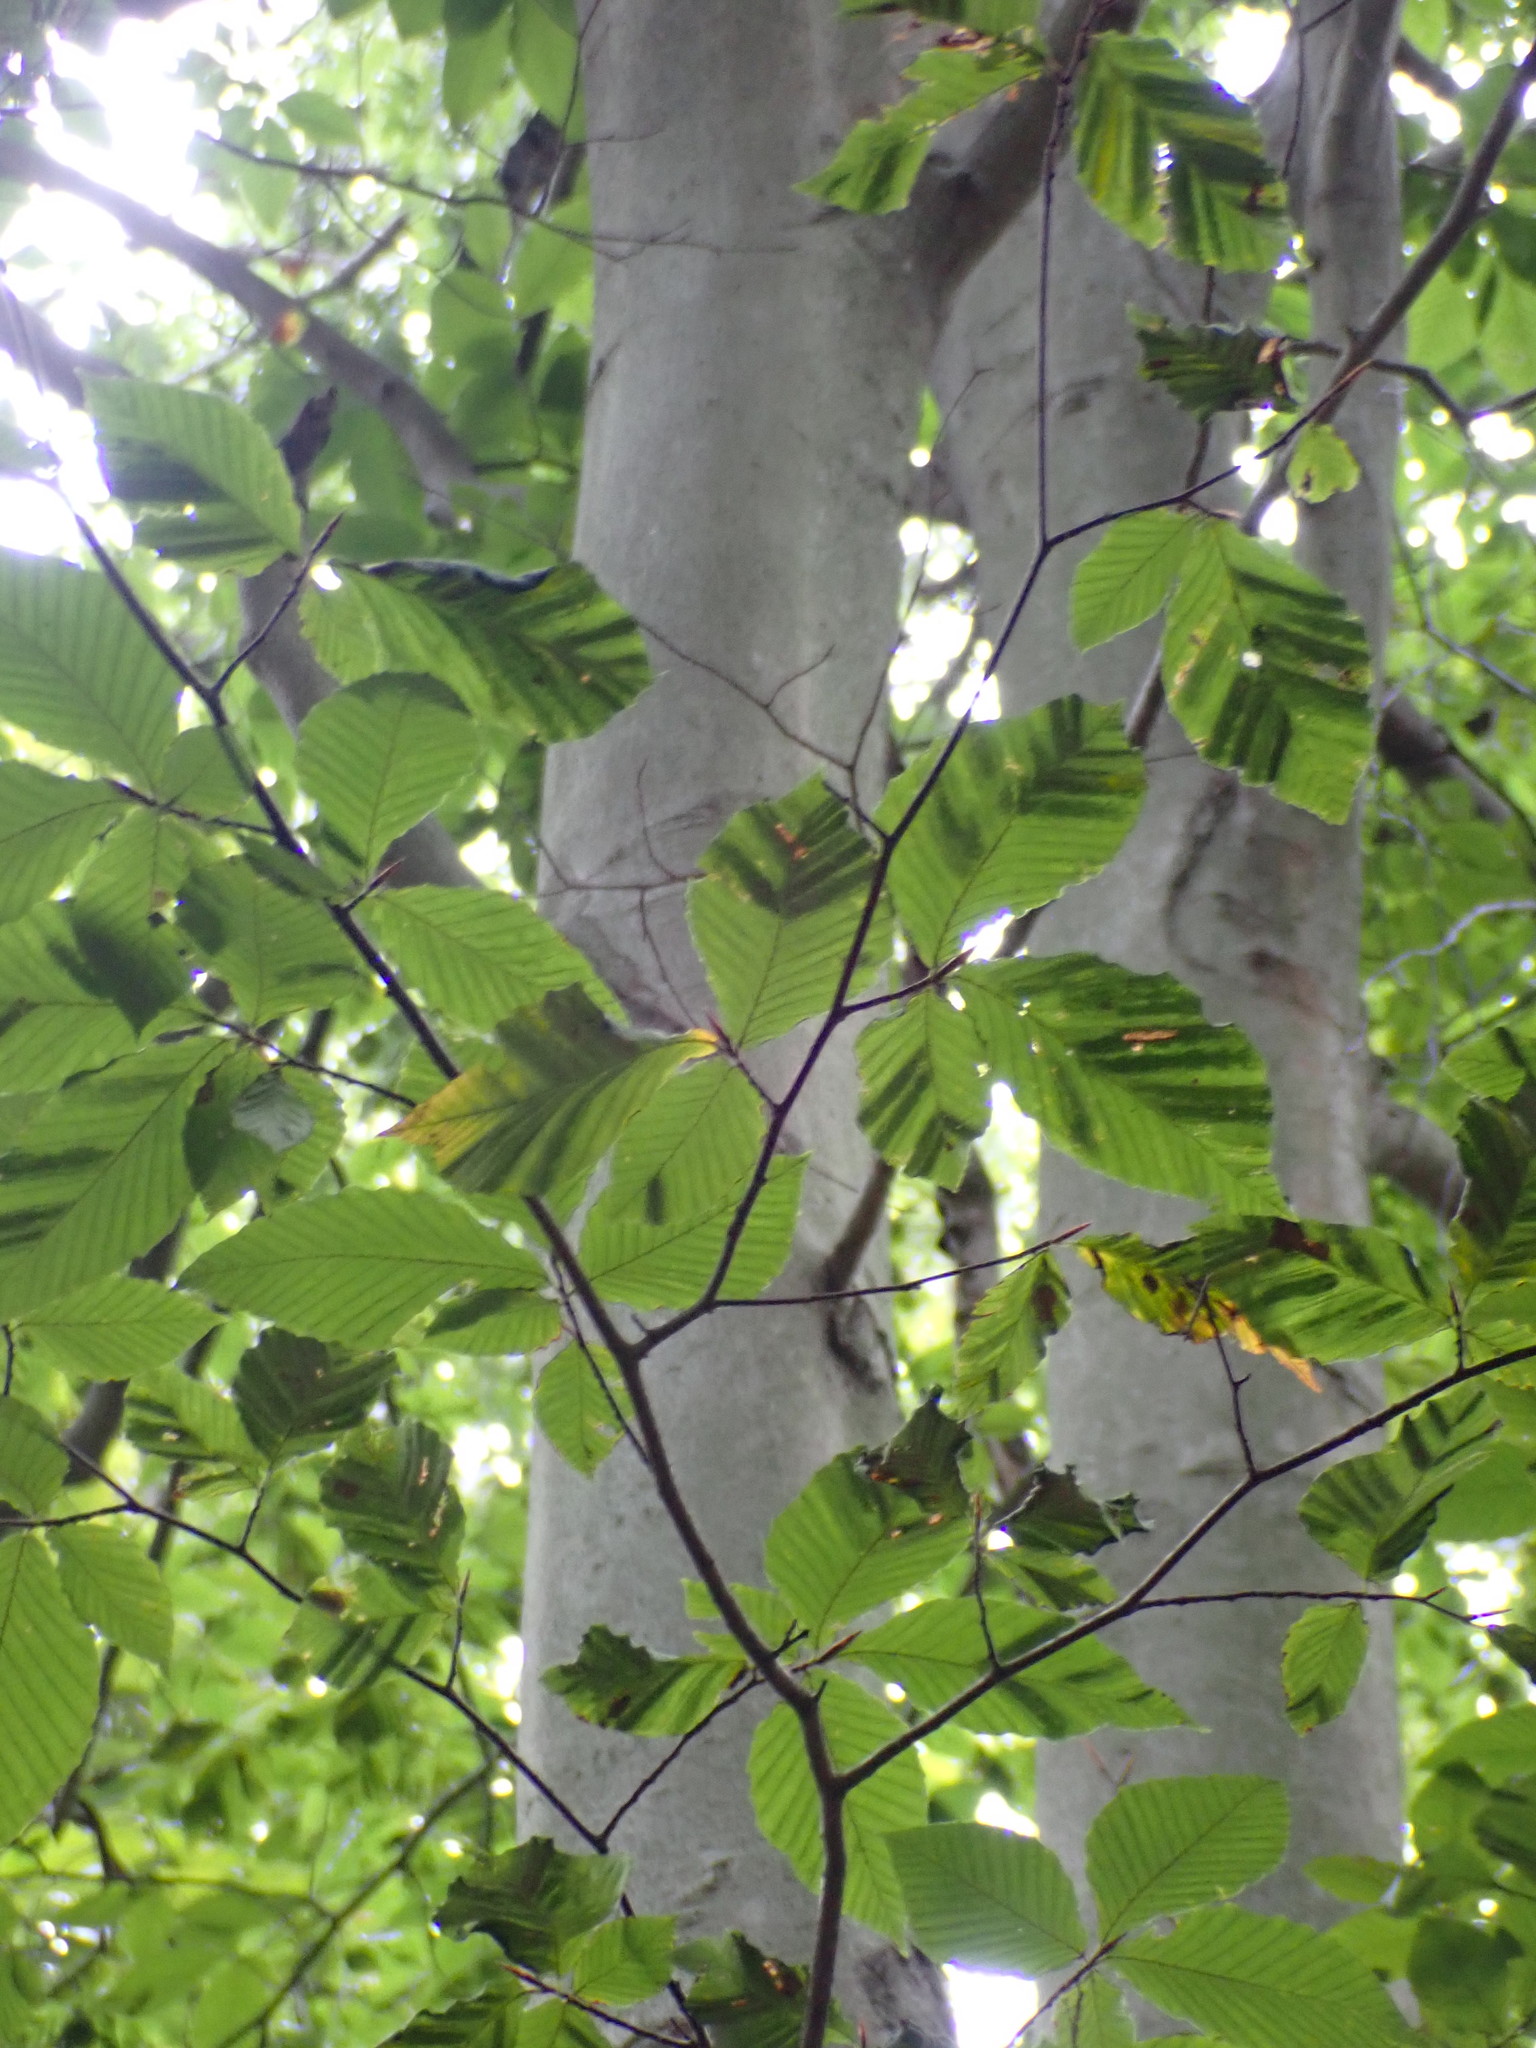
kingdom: Animalia
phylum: Nematoda
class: Chromadorea
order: Rhabditida
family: Anguinidae
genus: Litylenchus
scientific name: Litylenchus crenatae
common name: Beech leaf disease
